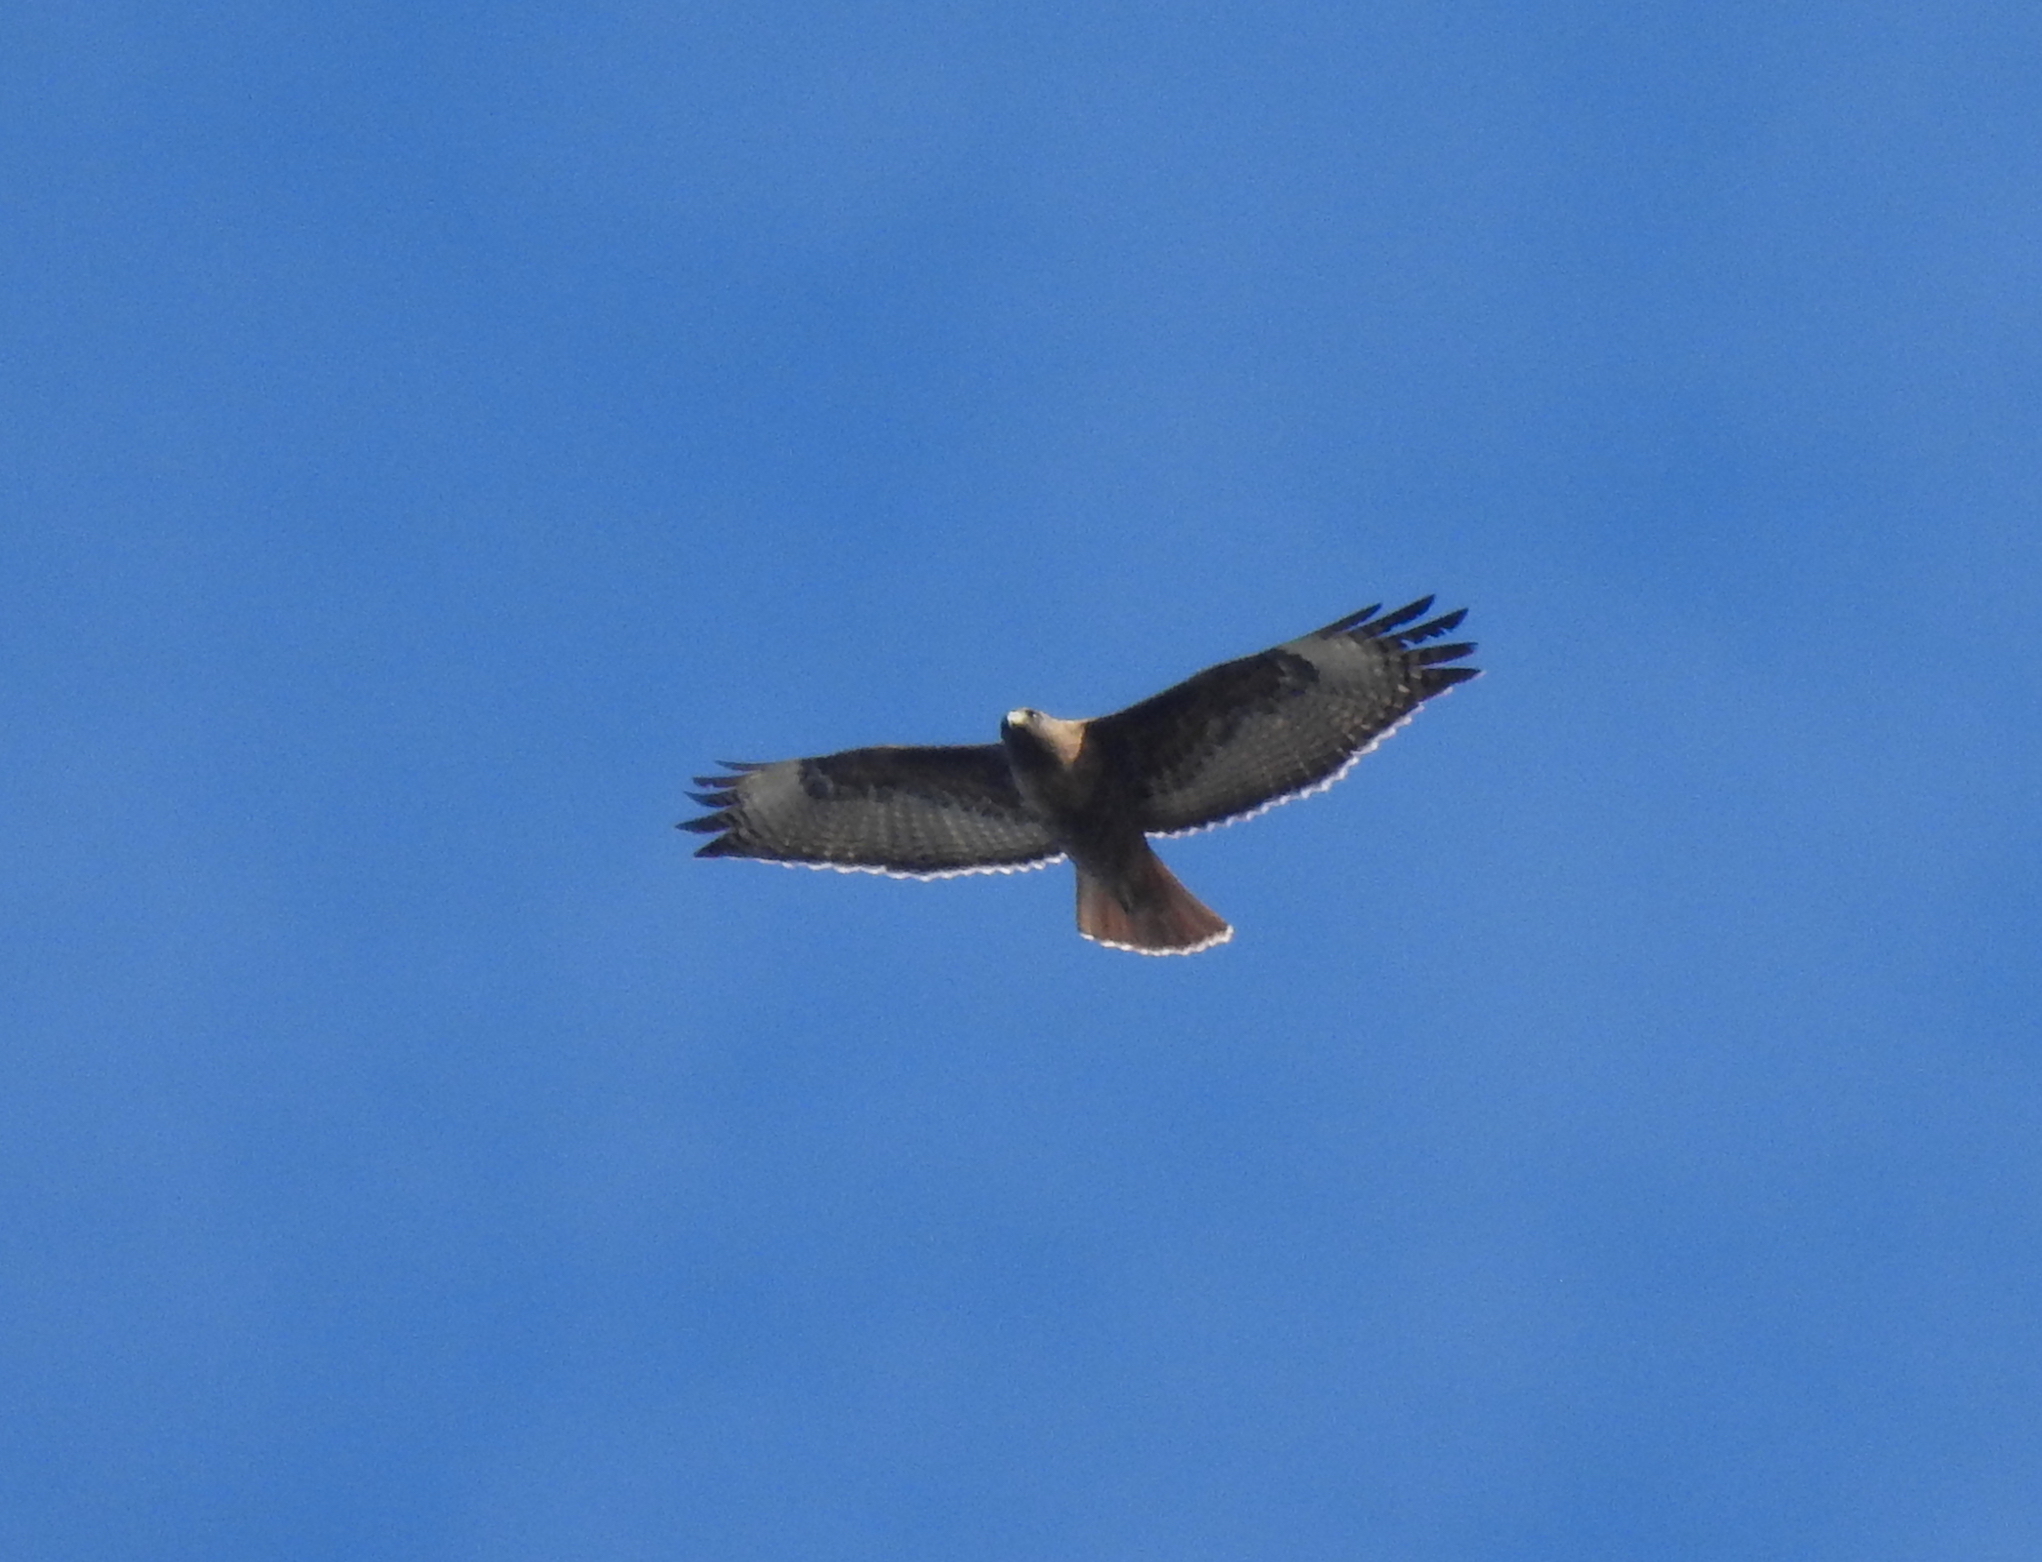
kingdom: Animalia
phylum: Chordata
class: Aves
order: Accipitriformes
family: Accipitridae
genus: Buteo
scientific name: Buteo jamaicensis
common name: Red-tailed hawk
